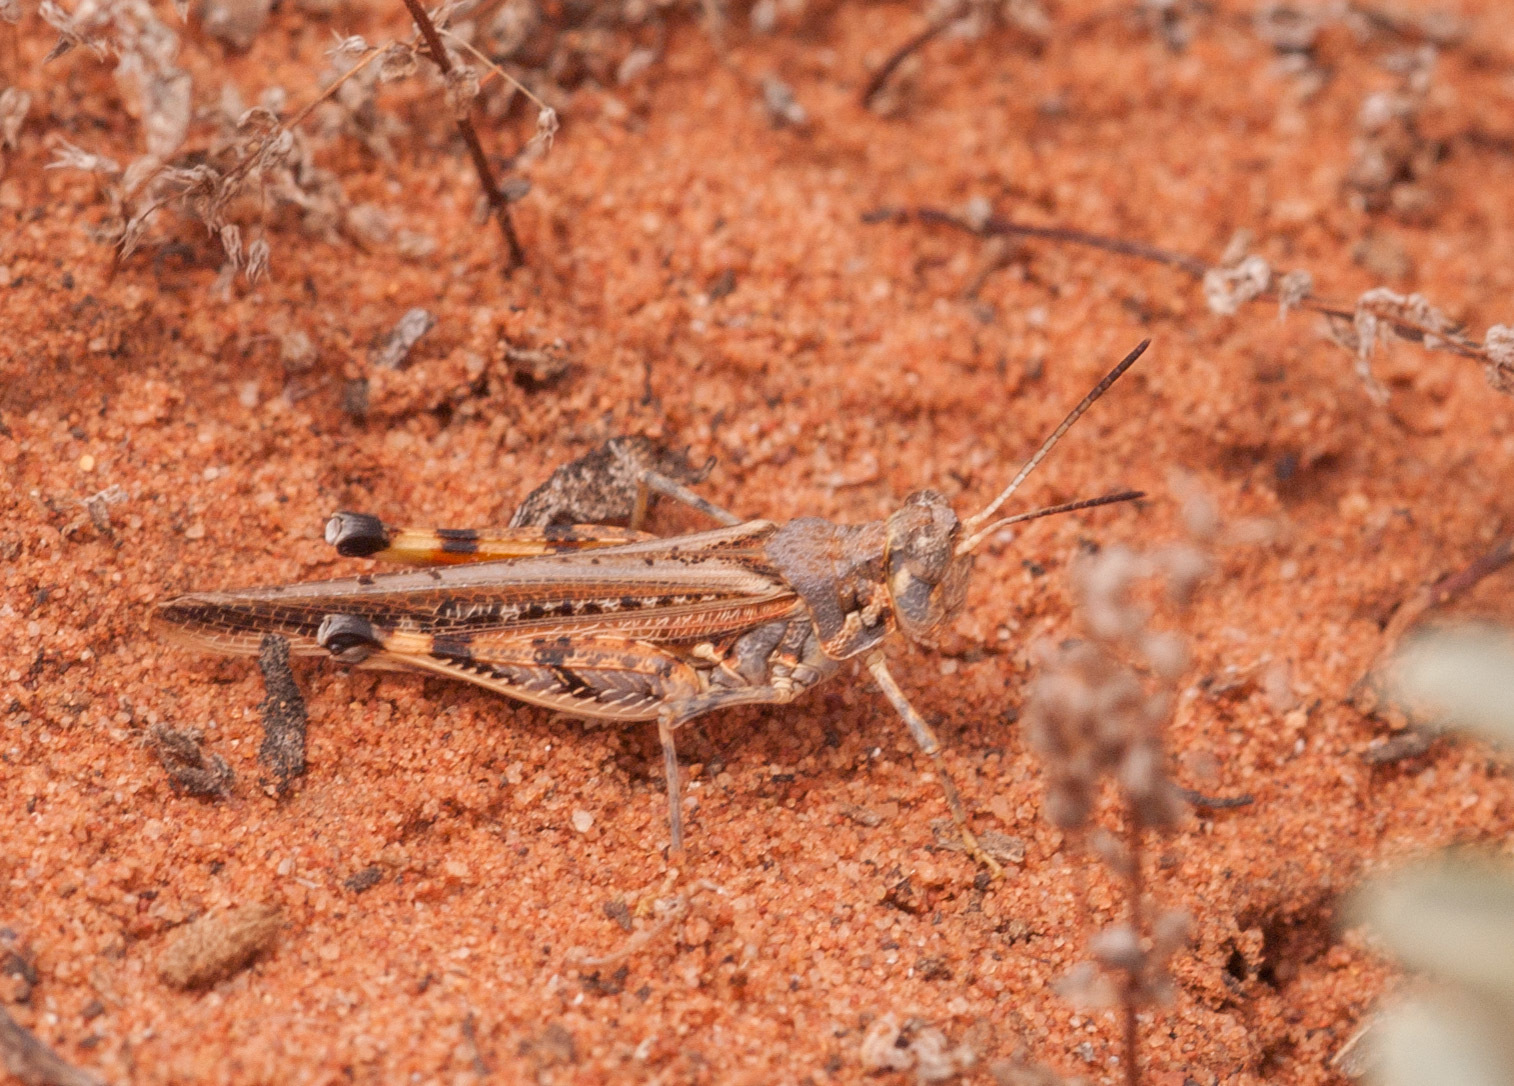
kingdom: Animalia
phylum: Arthropoda
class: Insecta
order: Orthoptera
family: Acrididae
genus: Urnisa
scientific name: Urnisa guttulosa
